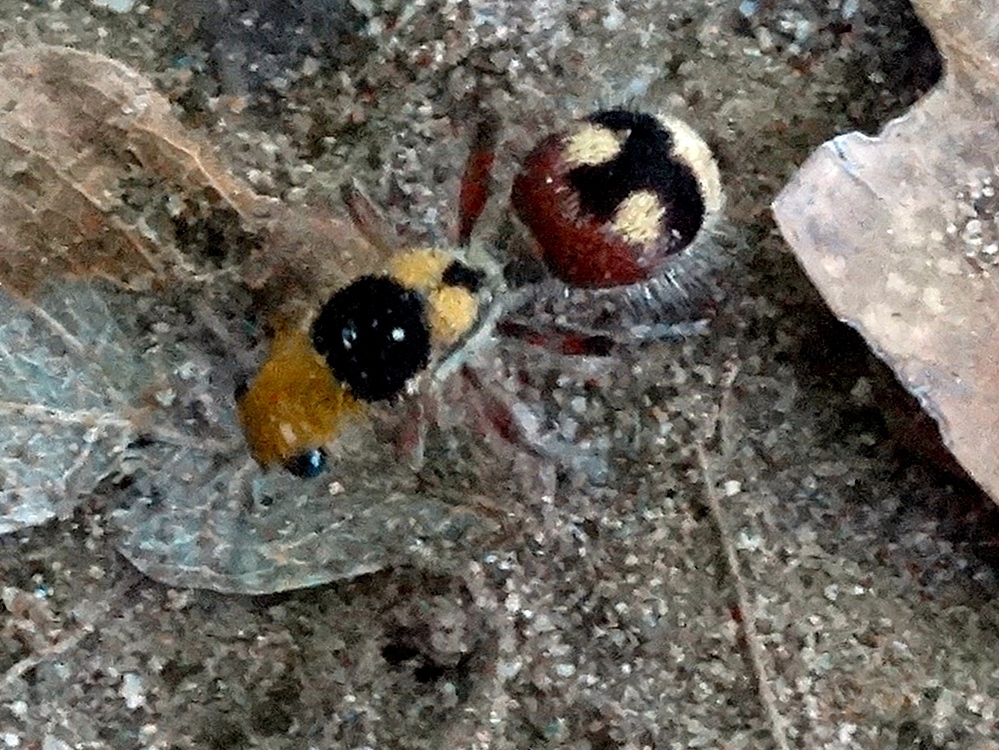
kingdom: Animalia
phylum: Arthropoda
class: Insecta
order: Hymenoptera
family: Mutillidae
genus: Dasymutilla
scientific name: Dasymutilla
